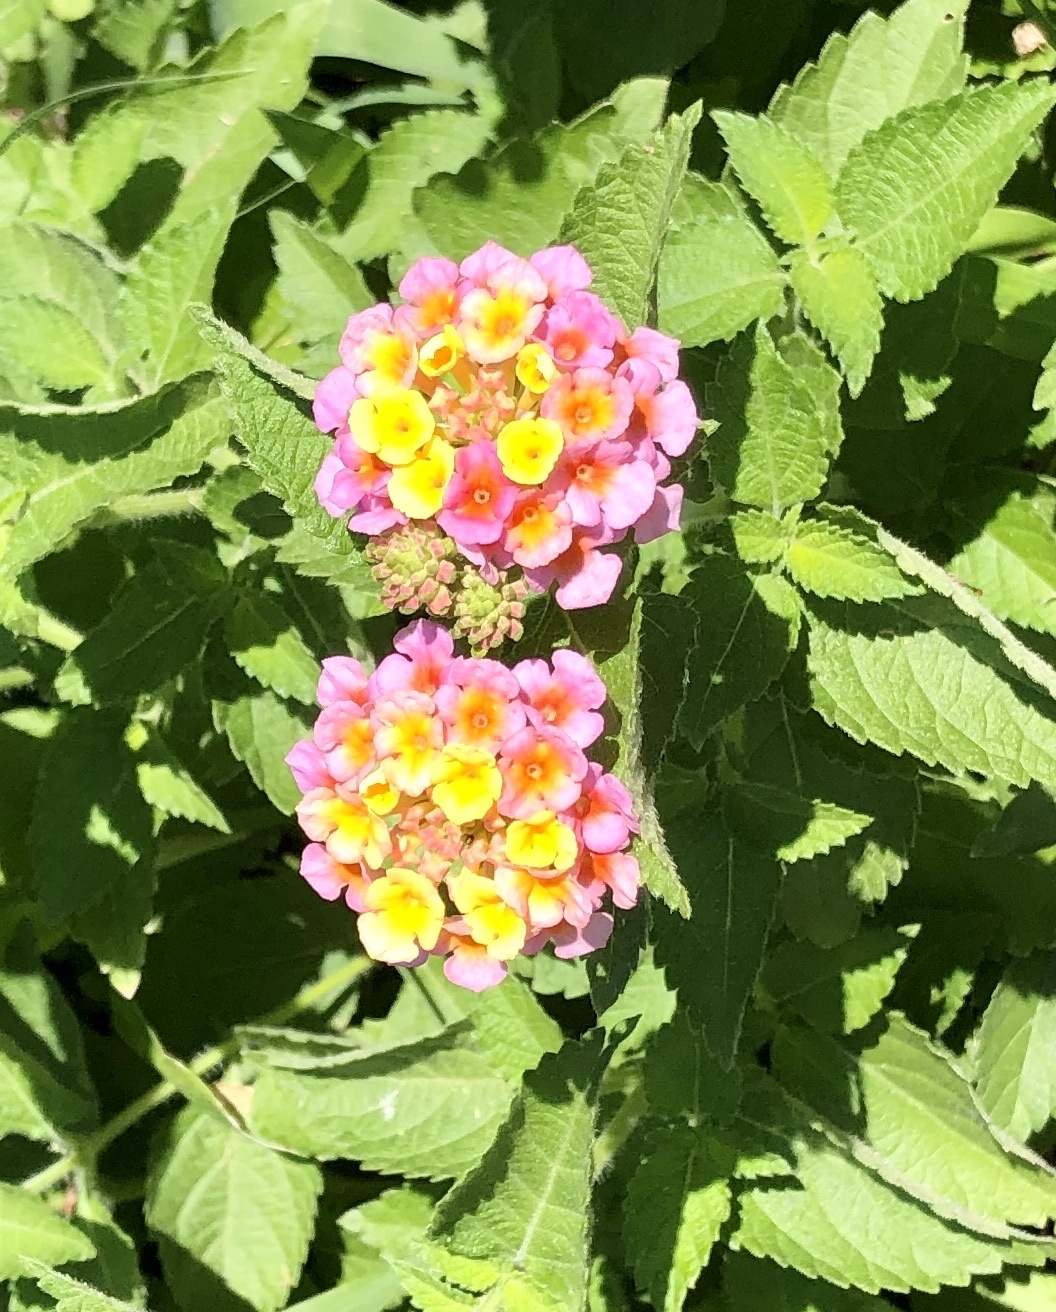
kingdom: Plantae
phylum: Tracheophyta
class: Magnoliopsida
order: Lamiales
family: Verbenaceae
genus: Lantana
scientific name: Lantana strigocamara
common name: Lantana
